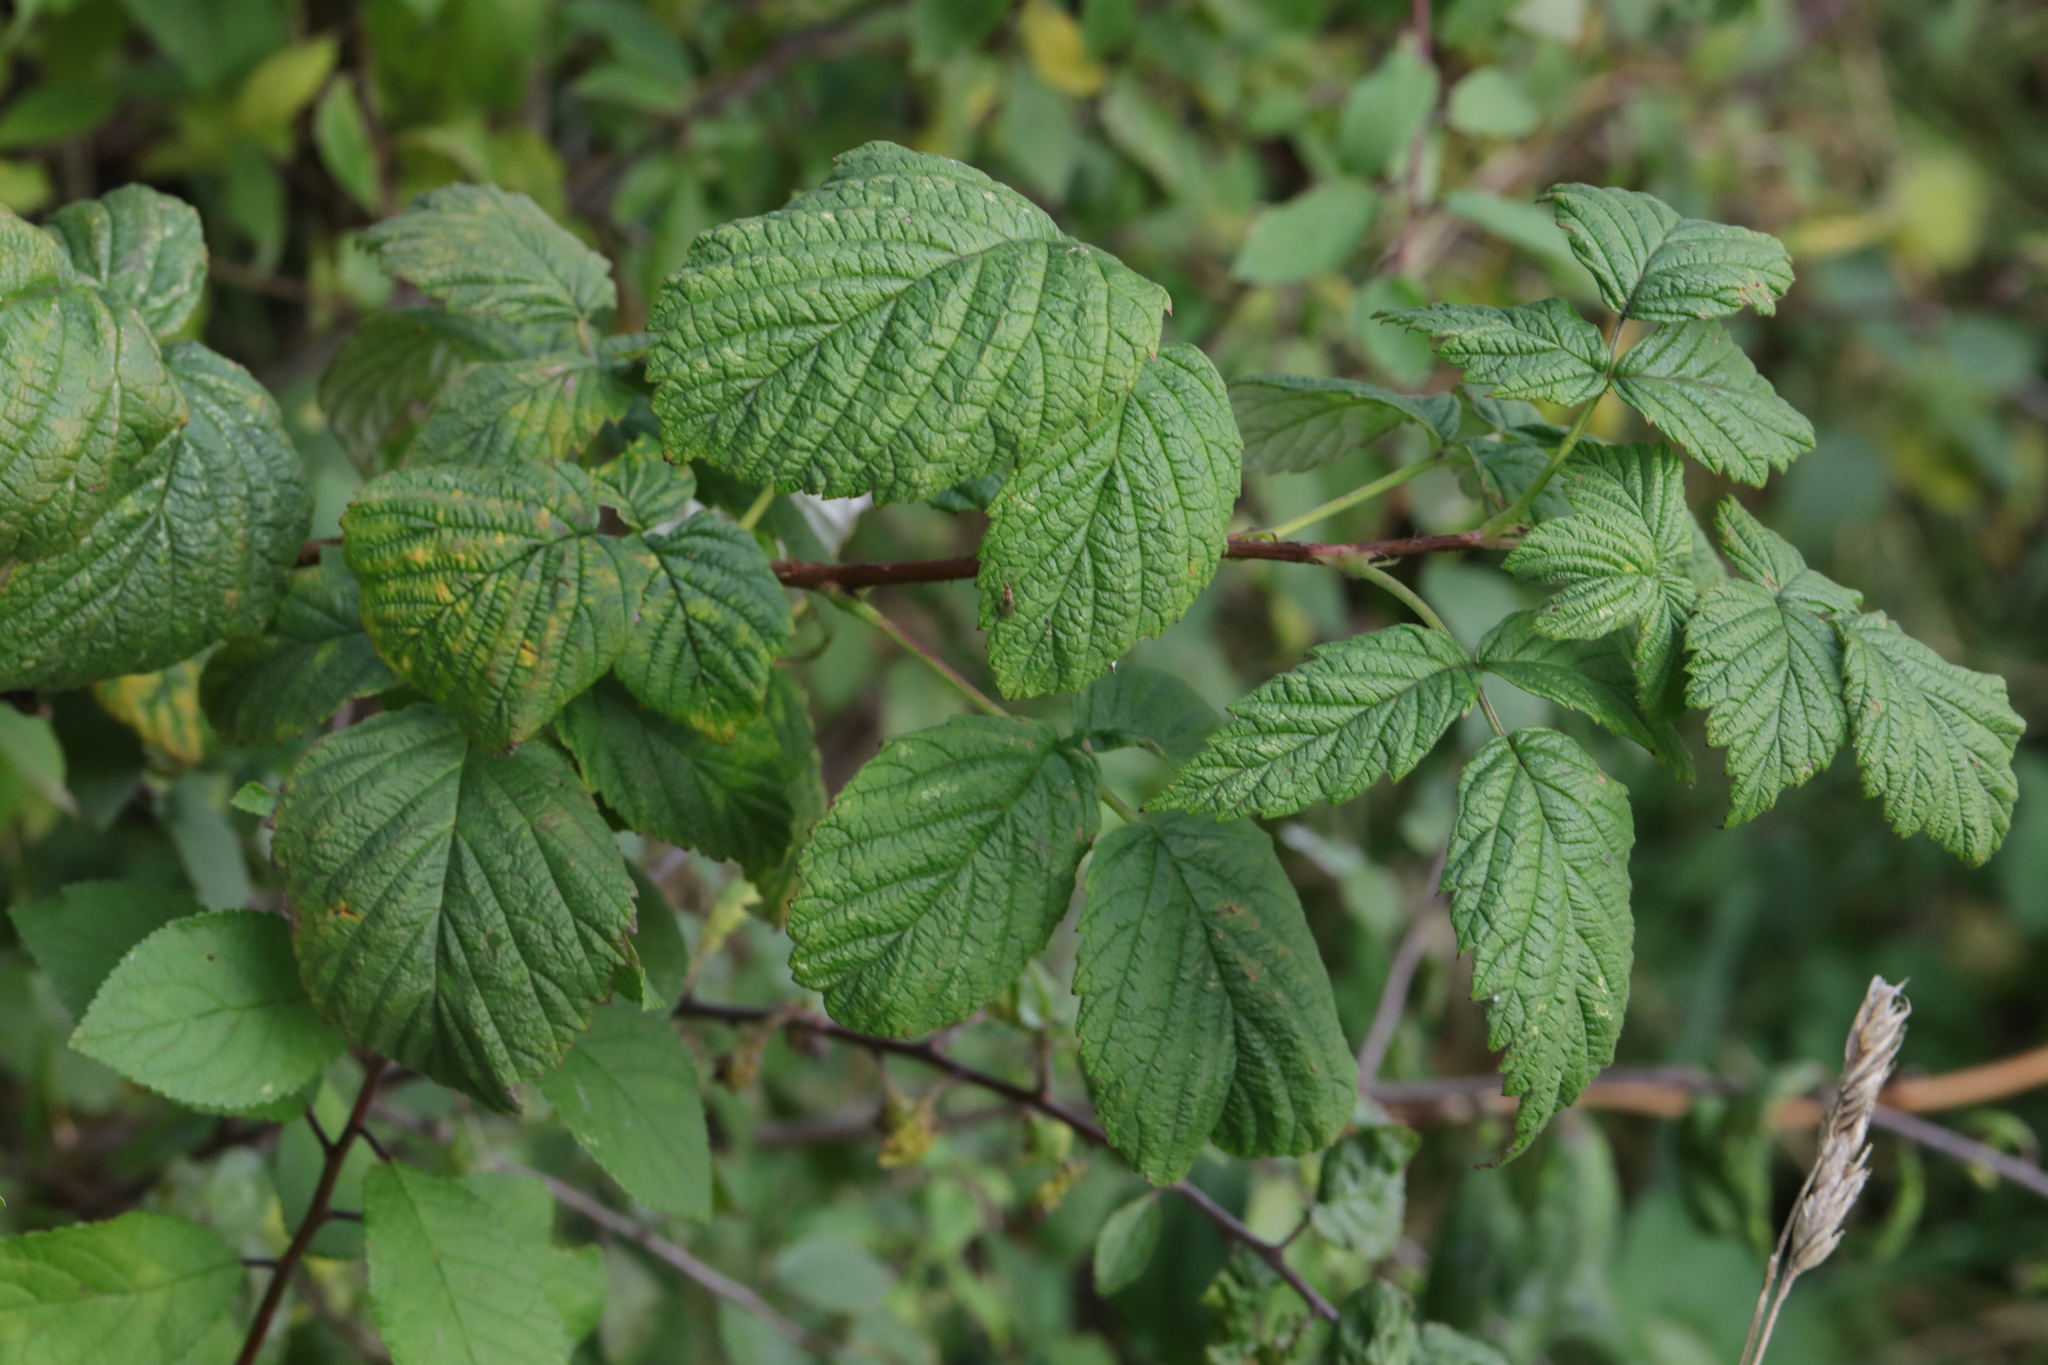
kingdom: Plantae
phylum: Tracheophyta
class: Magnoliopsida
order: Rosales
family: Rosaceae
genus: Rubus
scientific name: Rubus idaeus
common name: Raspberry
